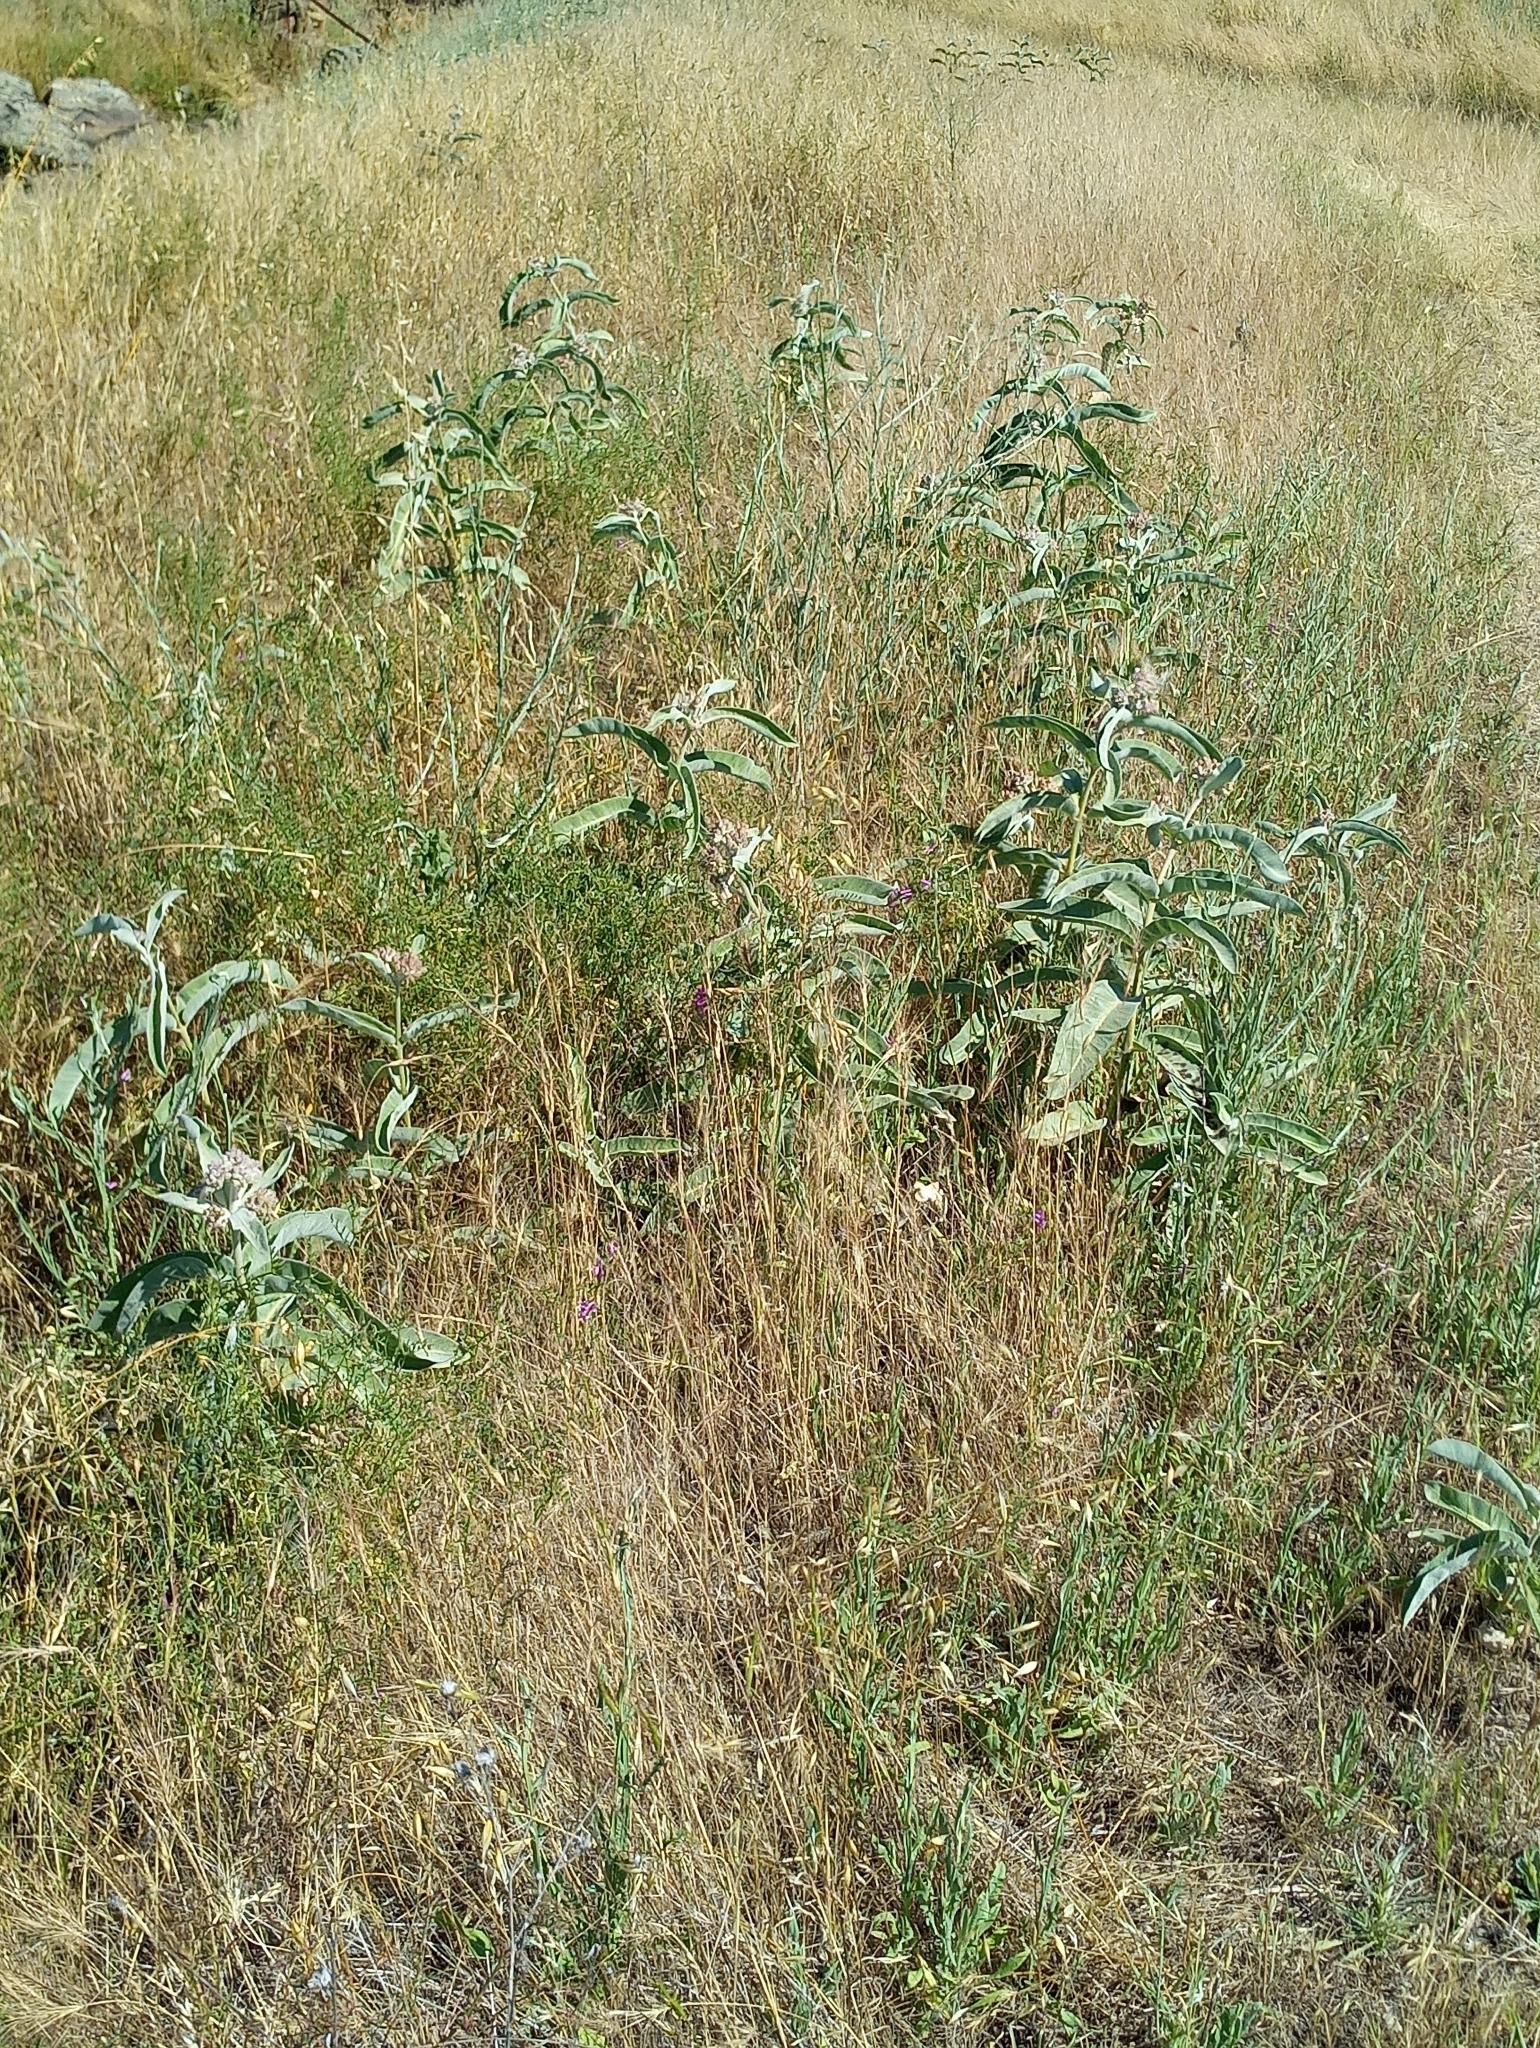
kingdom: Plantae
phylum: Tracheophyta
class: Magnoliopsida
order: Gentianales
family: Apocynaceae
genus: Asclepias
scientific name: Asclepias eriocarpa
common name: Indian milkweed
